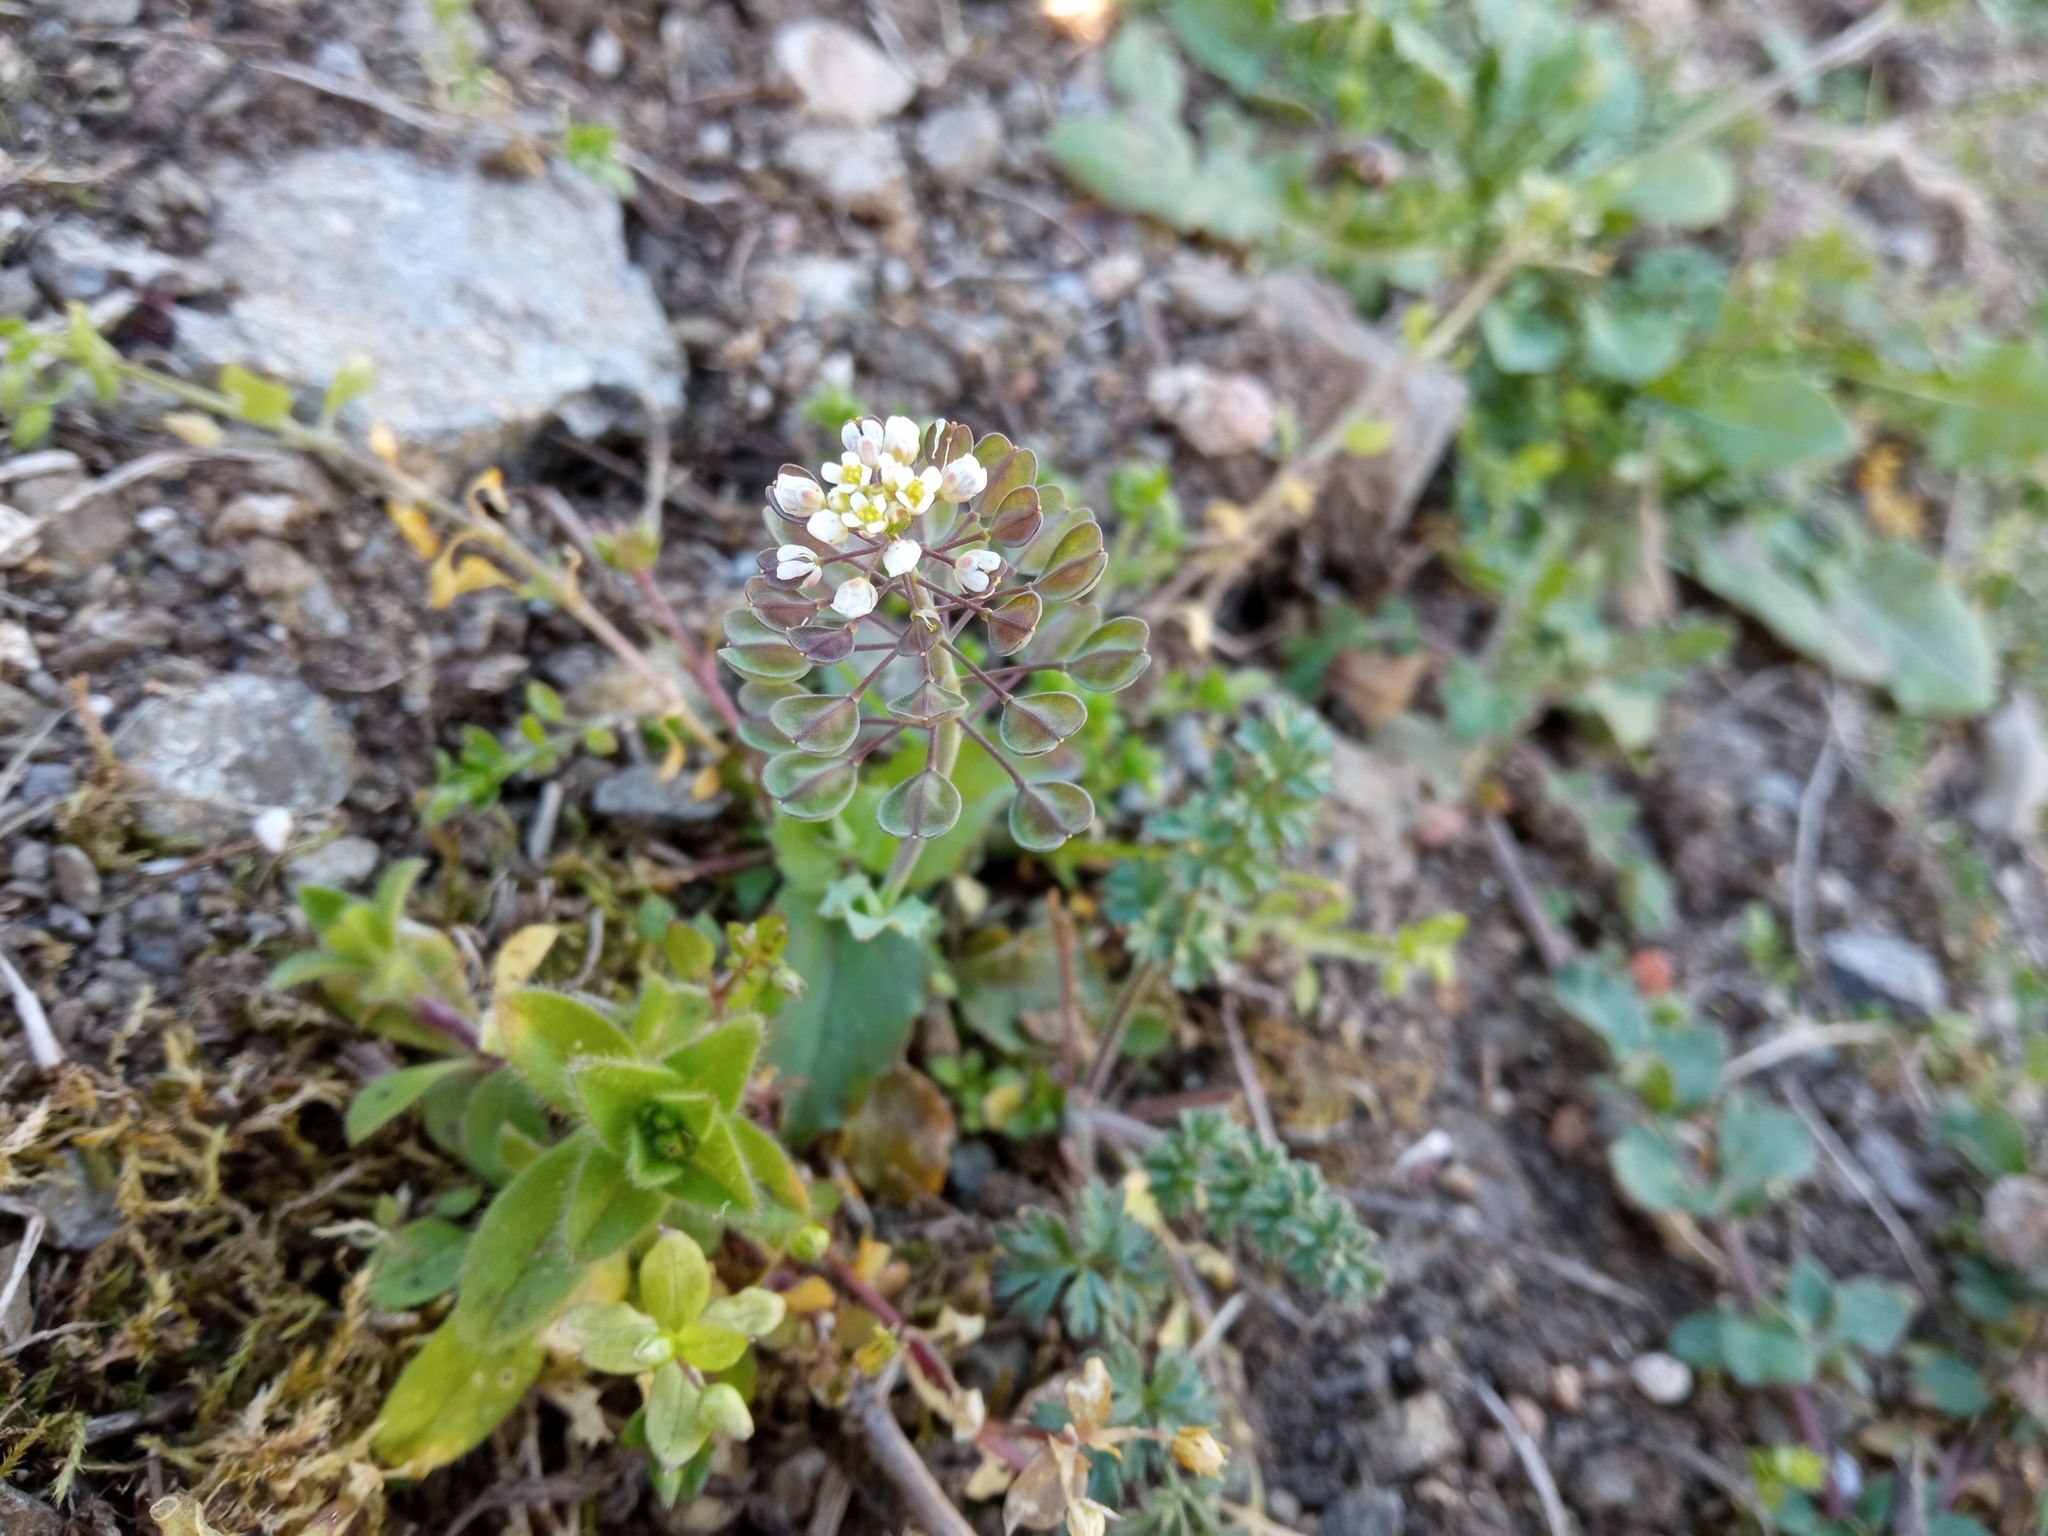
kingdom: Plantae
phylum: Tracheophyta
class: Magnoliopsida
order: Brassicales
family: Brassicaceae
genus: Noccaea
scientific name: Noccaea perfoliata
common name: Perfoliate pennycress
